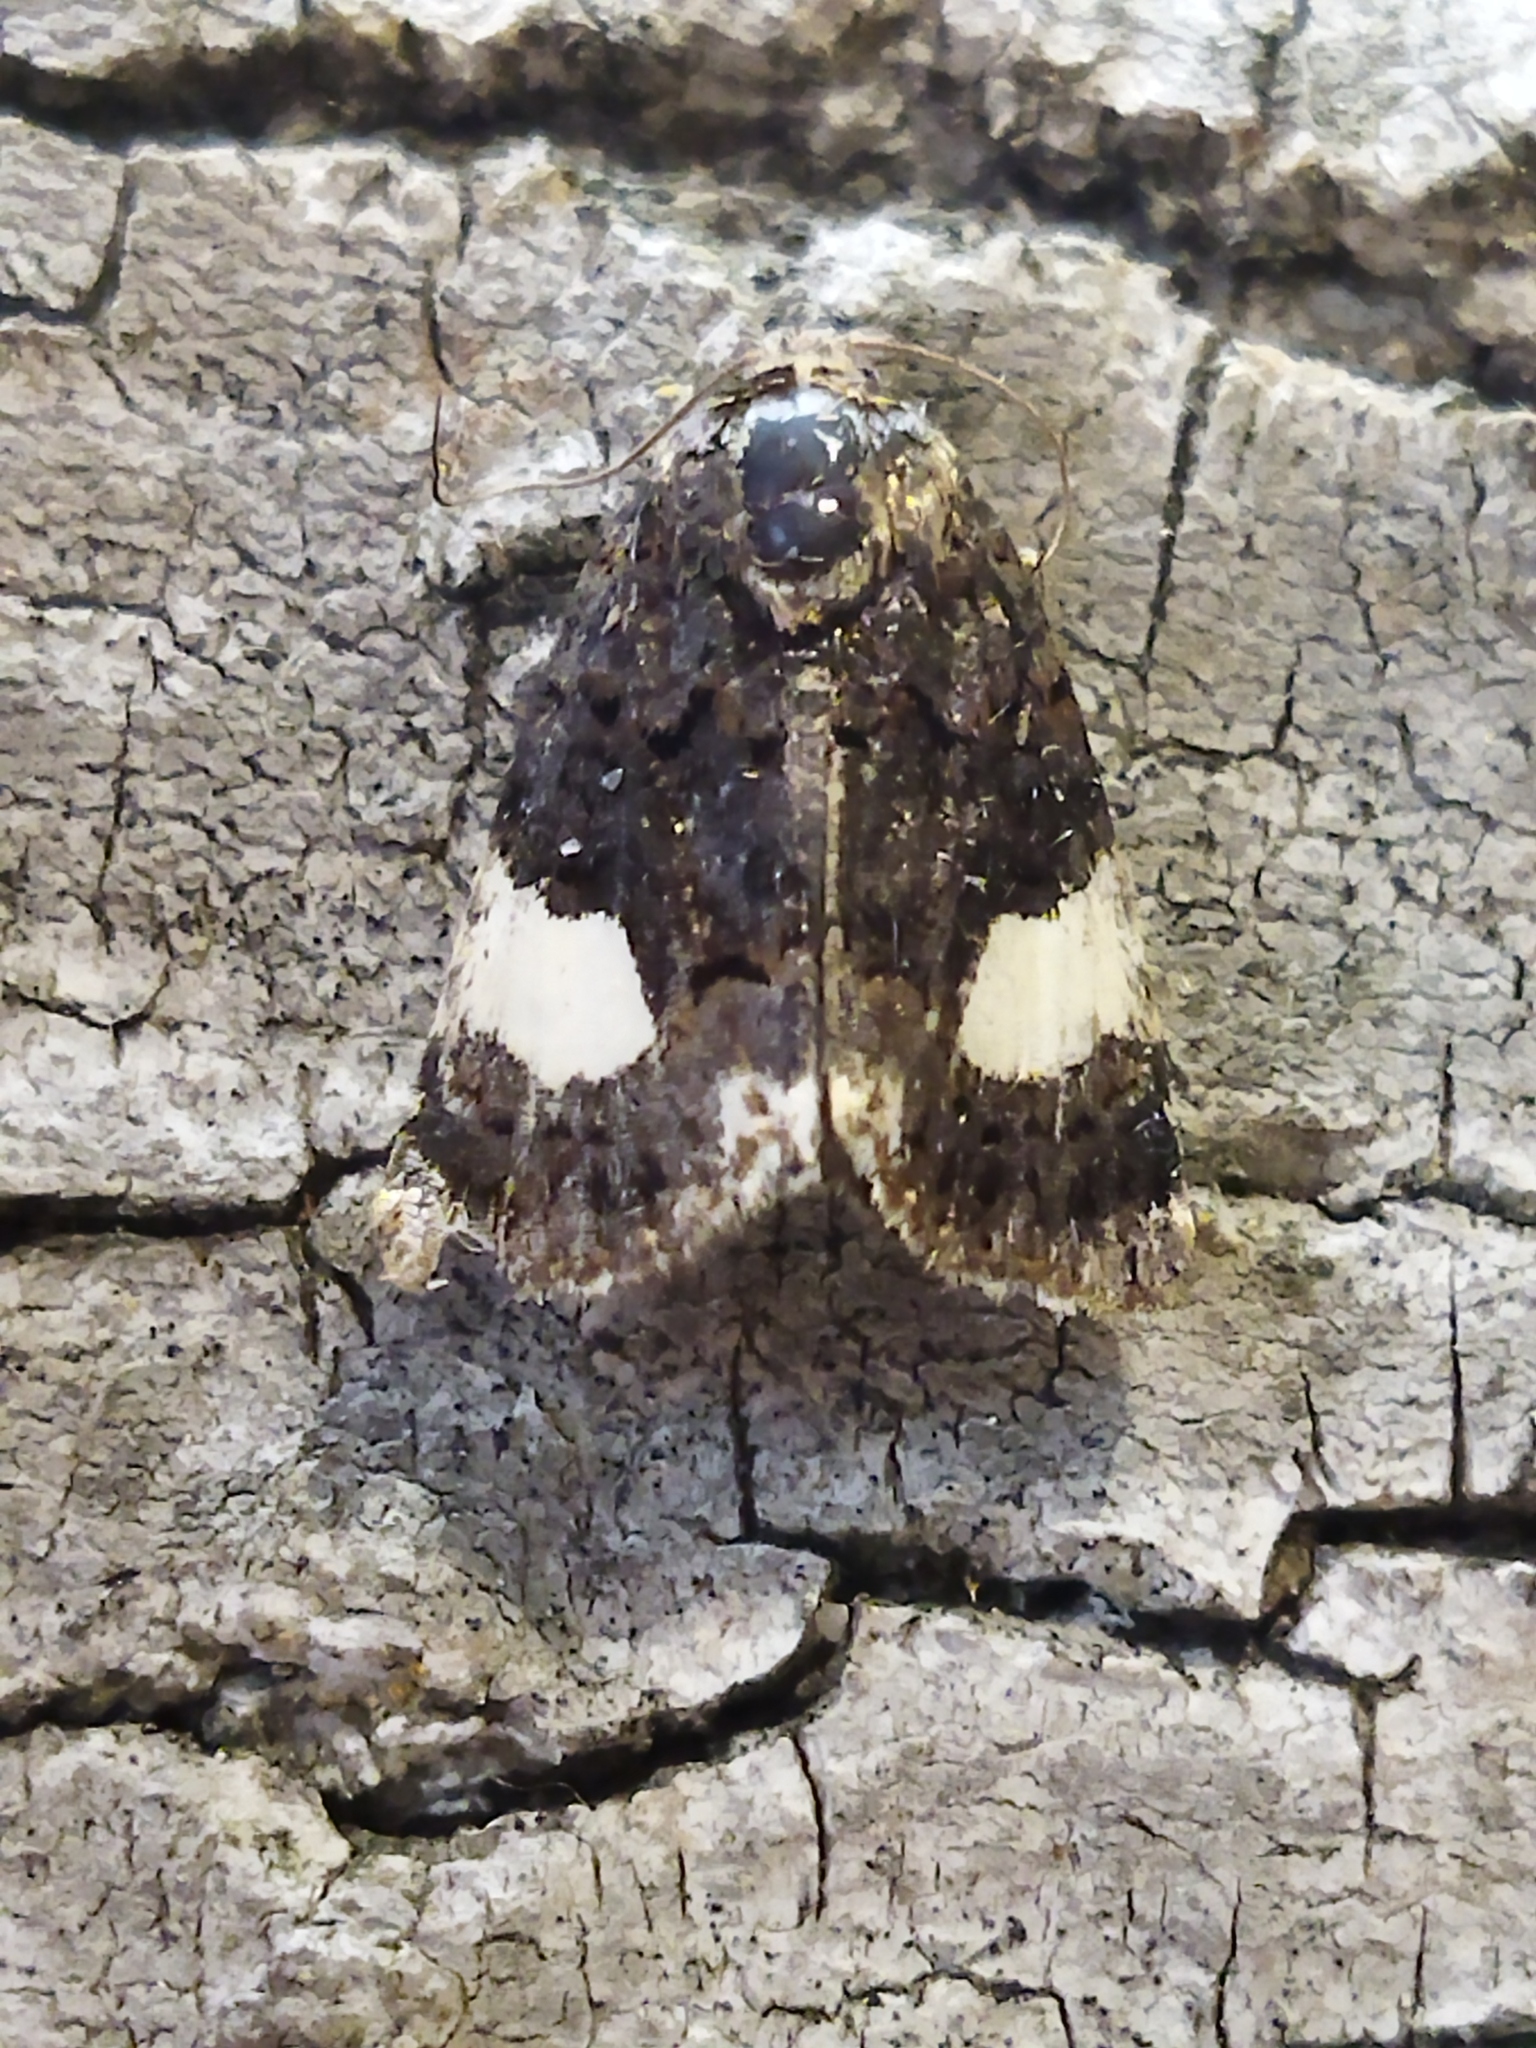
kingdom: Animalia
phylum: Arthropoda
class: Insecta
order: Lepidoptera
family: Erebidae
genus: Tyta
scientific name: Tyta luctuosa
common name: Four-spotted
